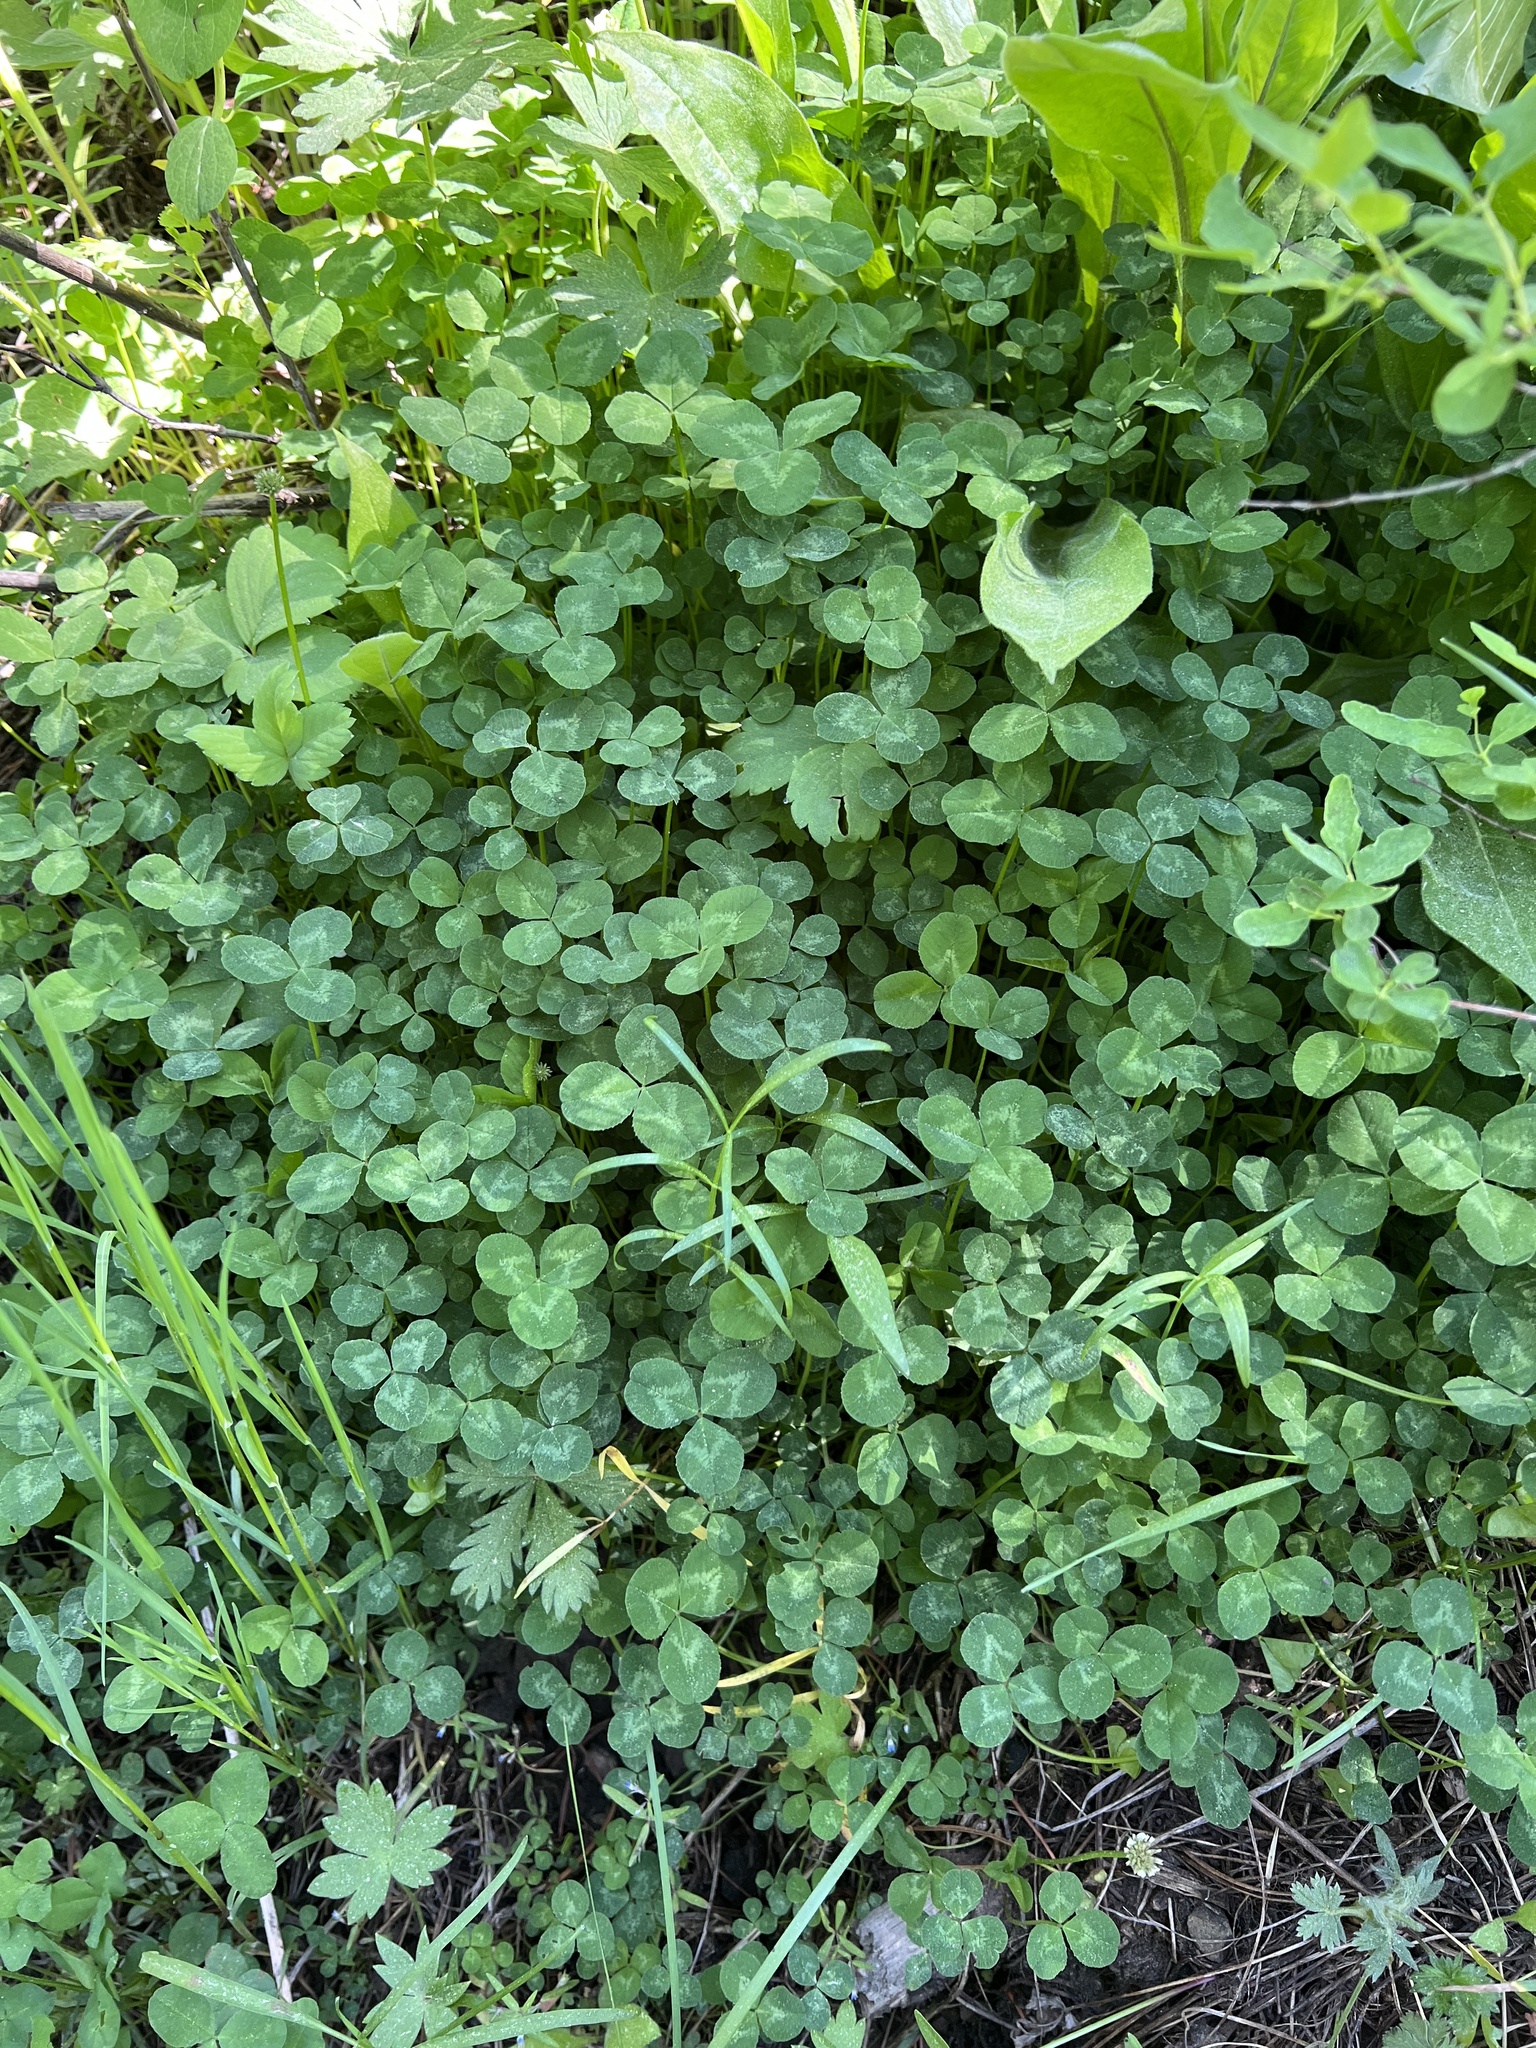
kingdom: Plantae
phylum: Tracheophyta
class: Magnoliopsida
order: Fabales
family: Fabaceae
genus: Trifolium
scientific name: Trifolium repens
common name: White clover
